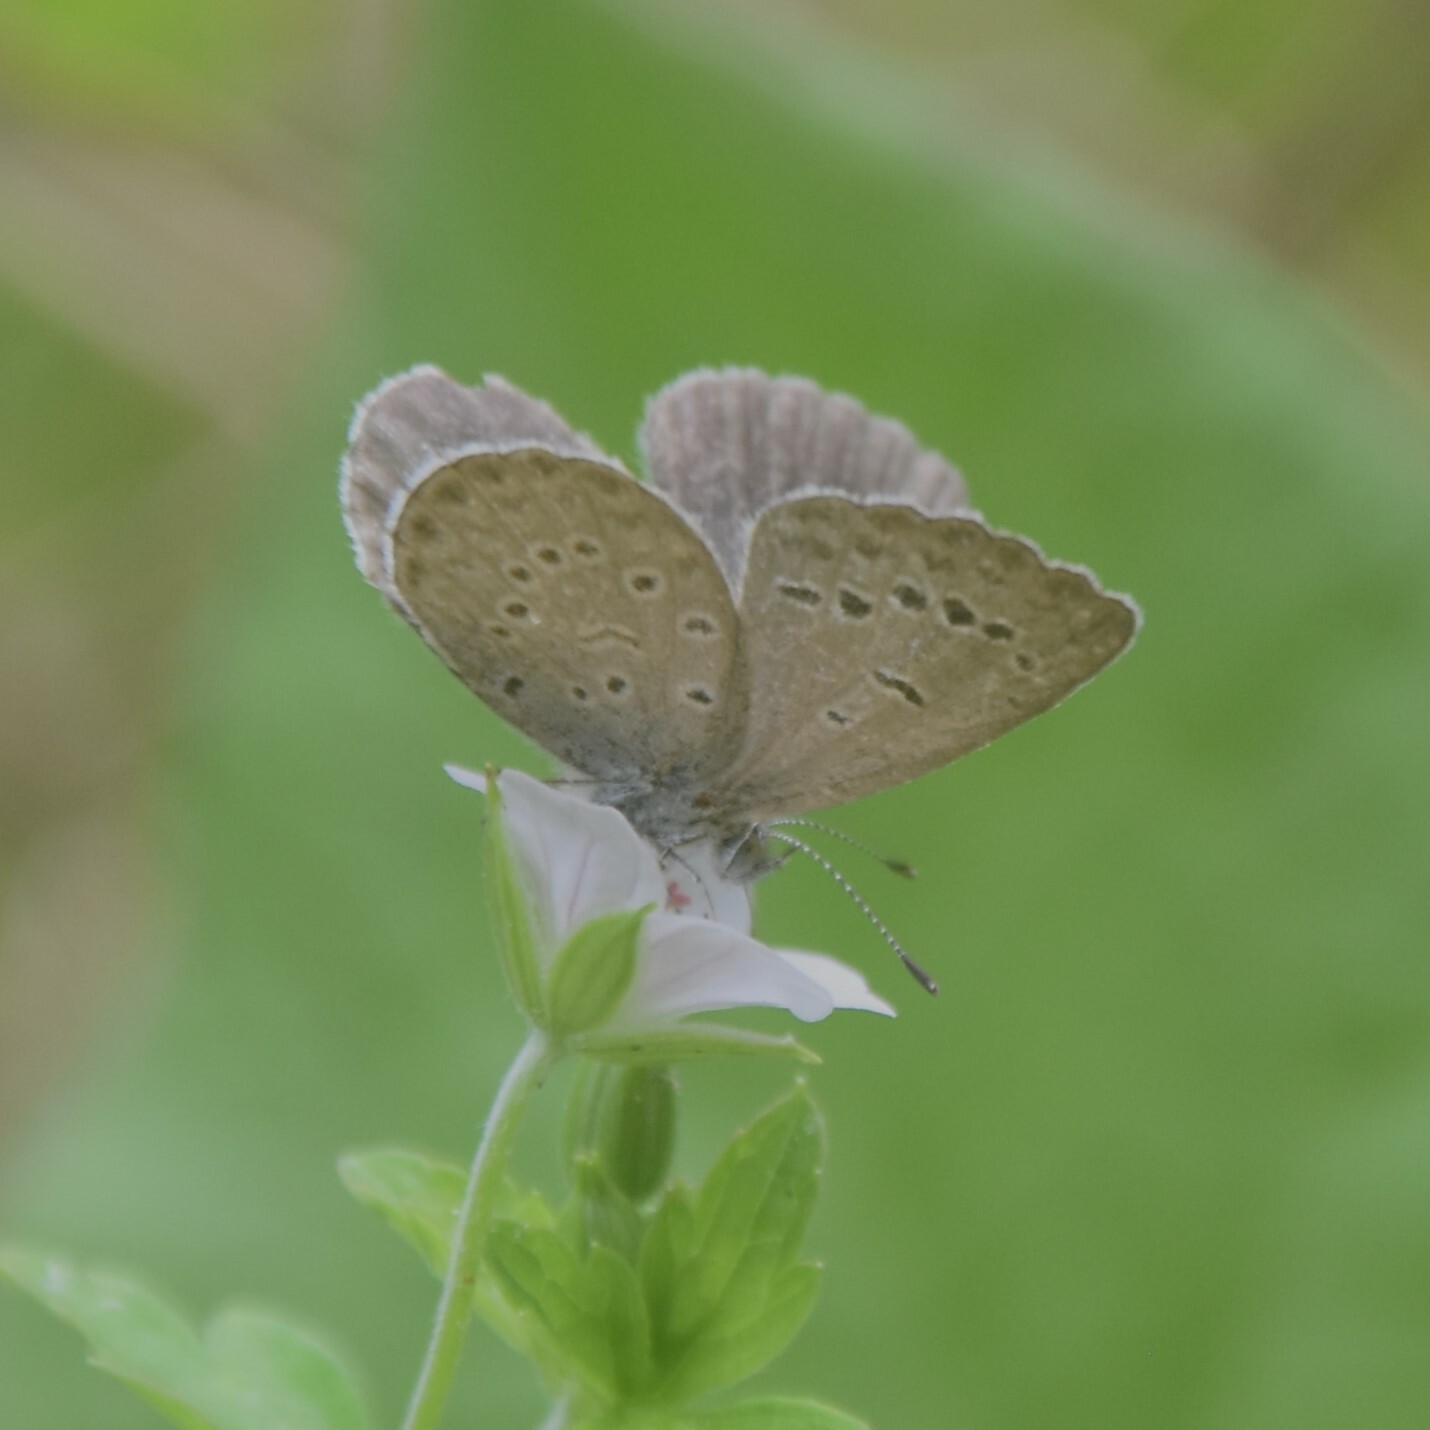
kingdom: Animalia
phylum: Arthropoda
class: Insecta
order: Lepidoptera
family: Lycaenidae
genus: Zizeeria
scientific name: Zizeeria karsandra
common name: Dark grass blue
